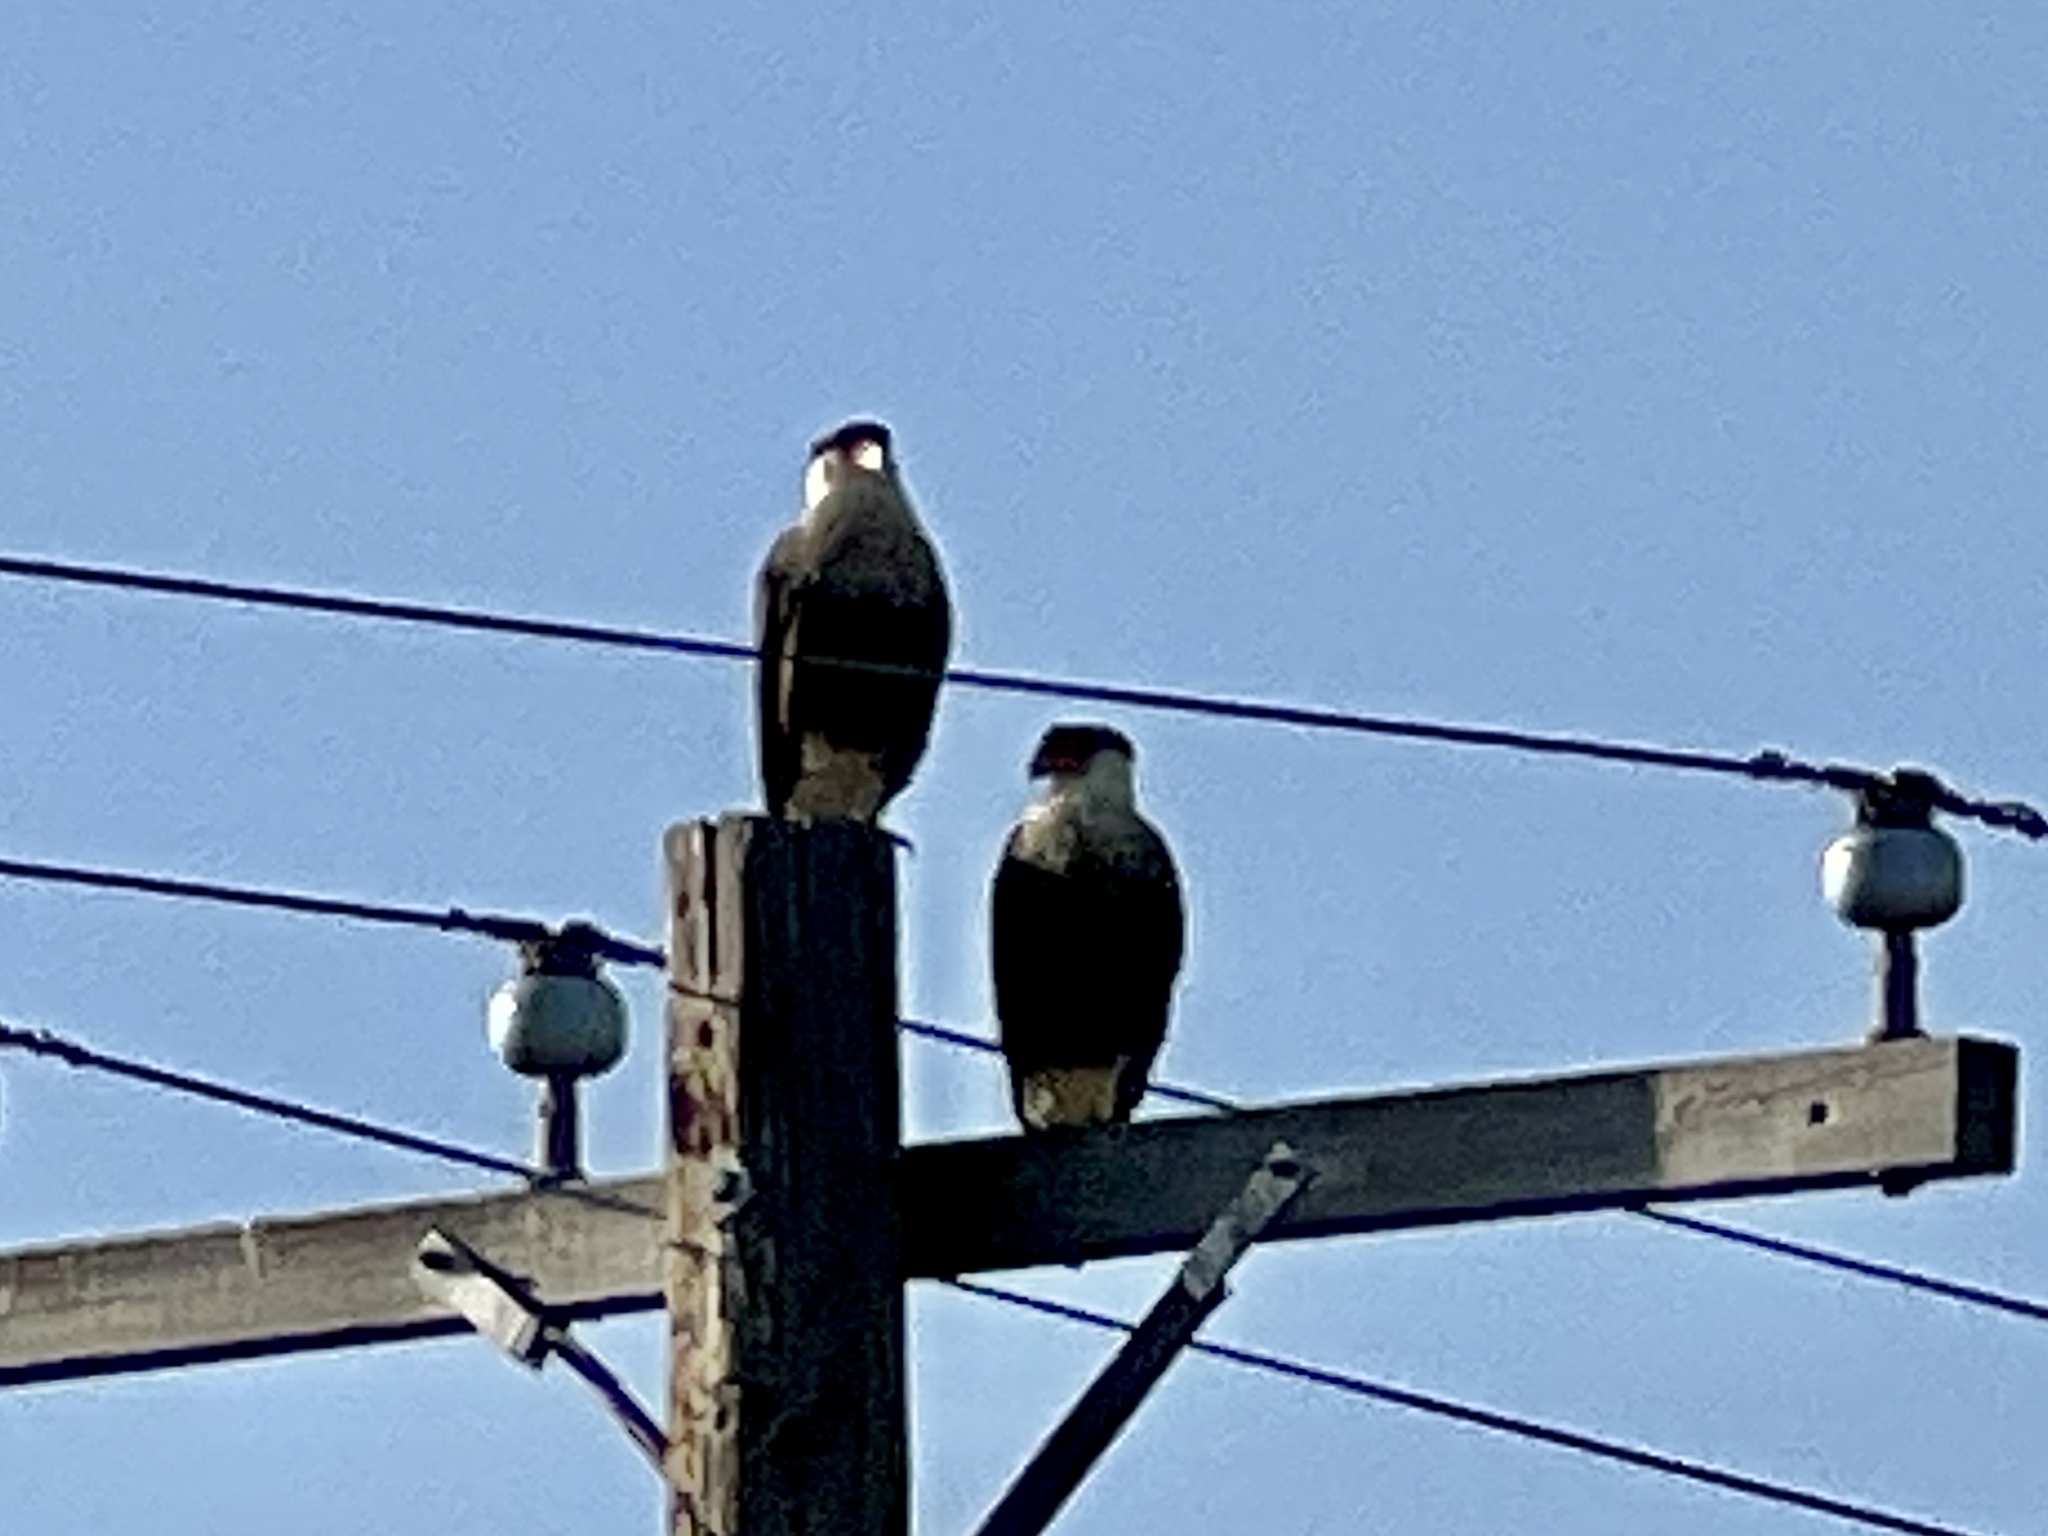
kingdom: Animalia
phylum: Chordata
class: Aves
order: Falconiformes
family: Falconidae
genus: Caracara
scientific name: Caracara plancus
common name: Southern caracara
